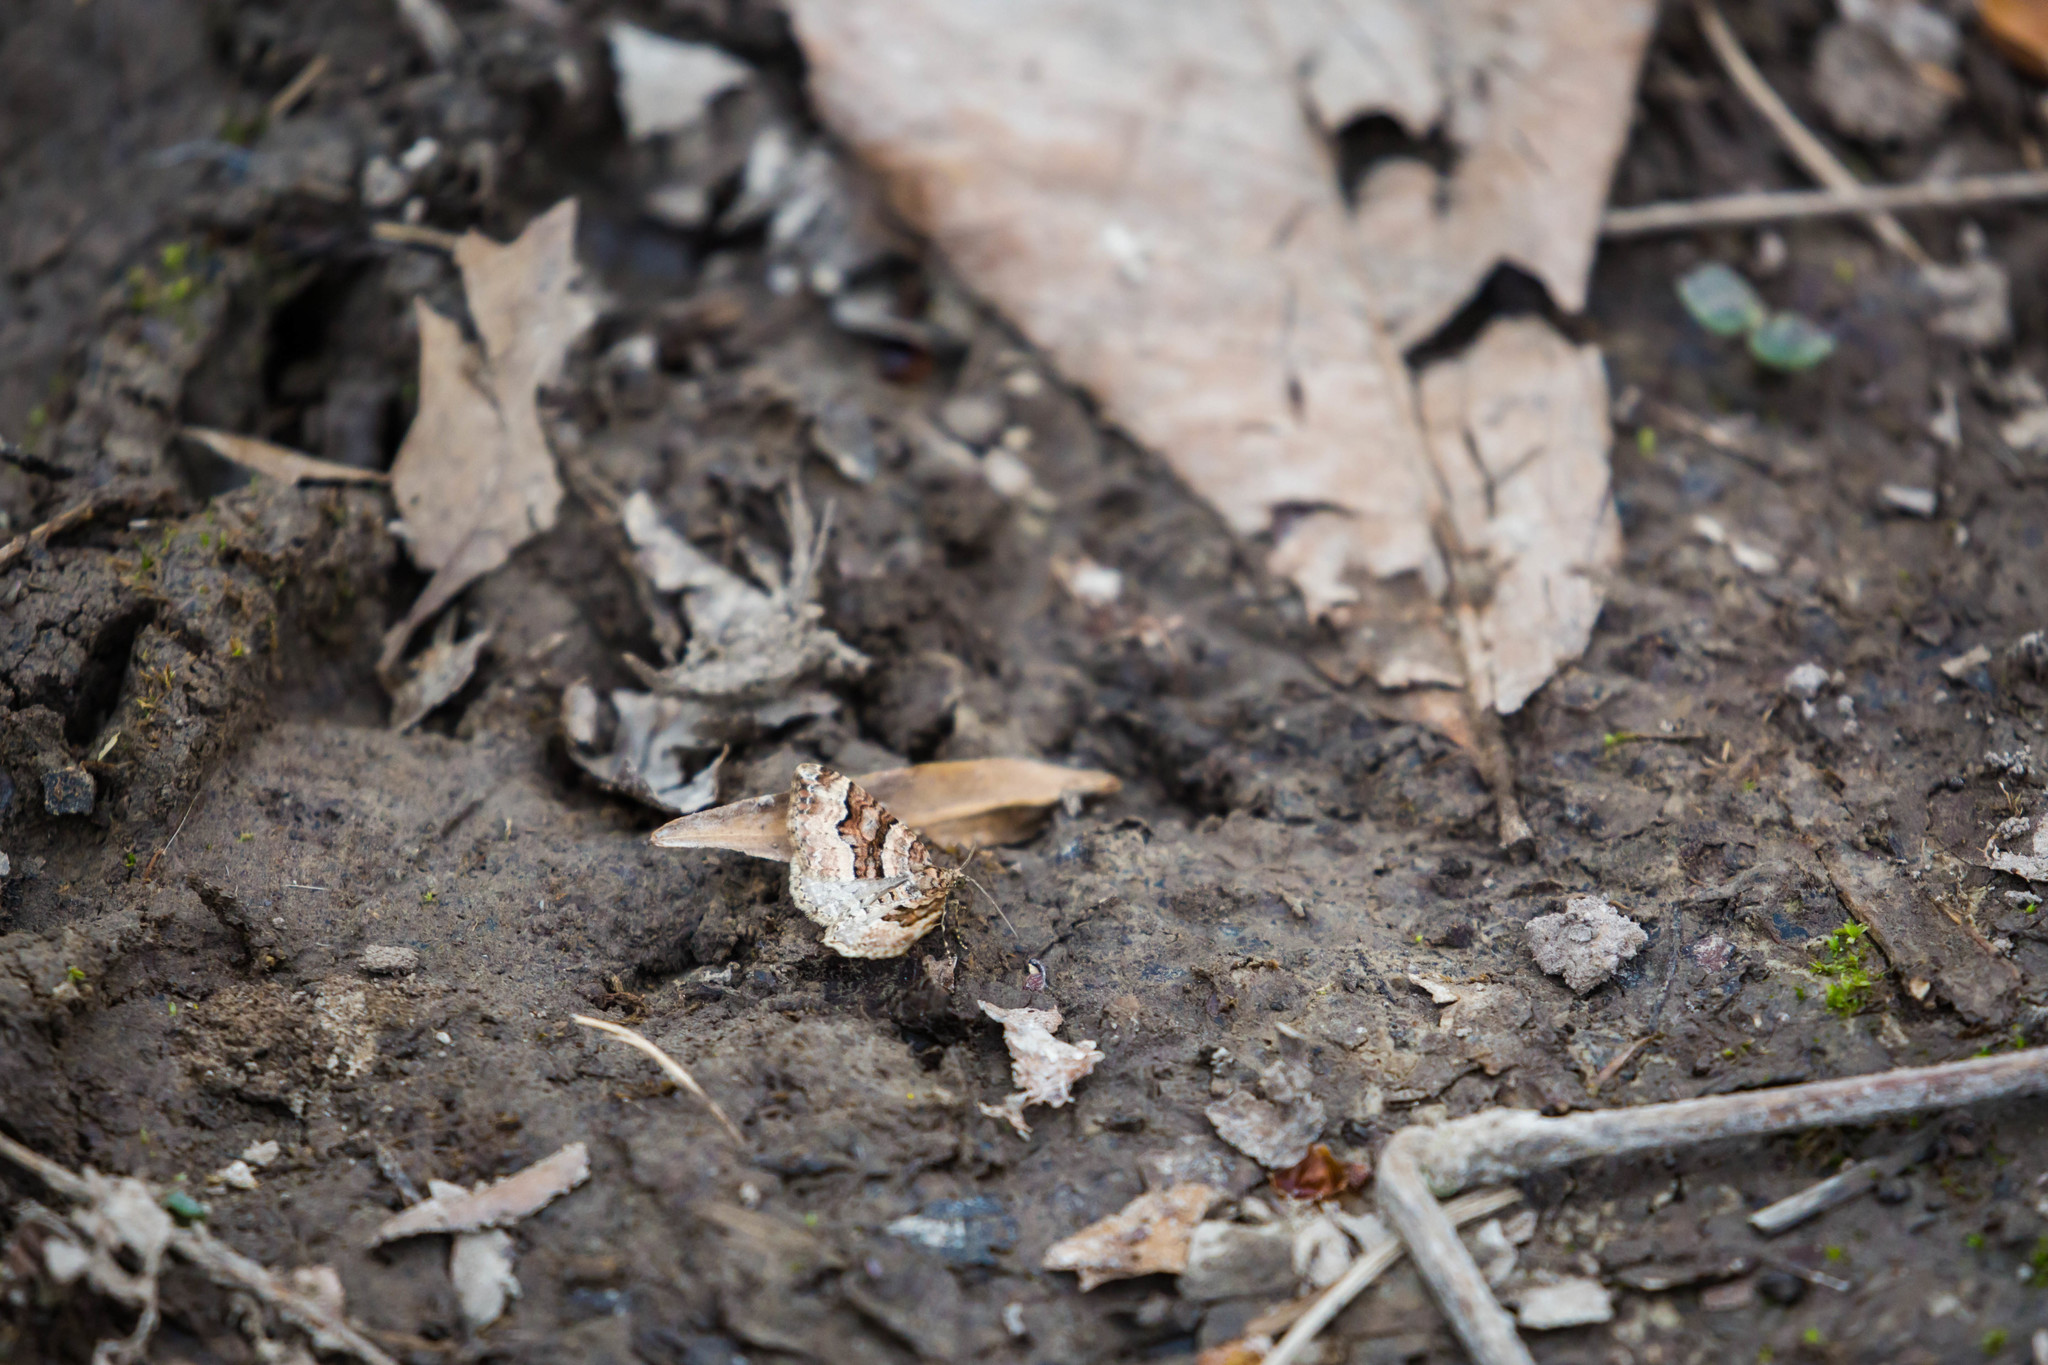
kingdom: Animalia
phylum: Arthropoda
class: Insecta
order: Lepidoptera
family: Geometridae
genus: Xanthorhoe
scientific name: Xanthorhoe lacustrata
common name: Toothed brown carpet
